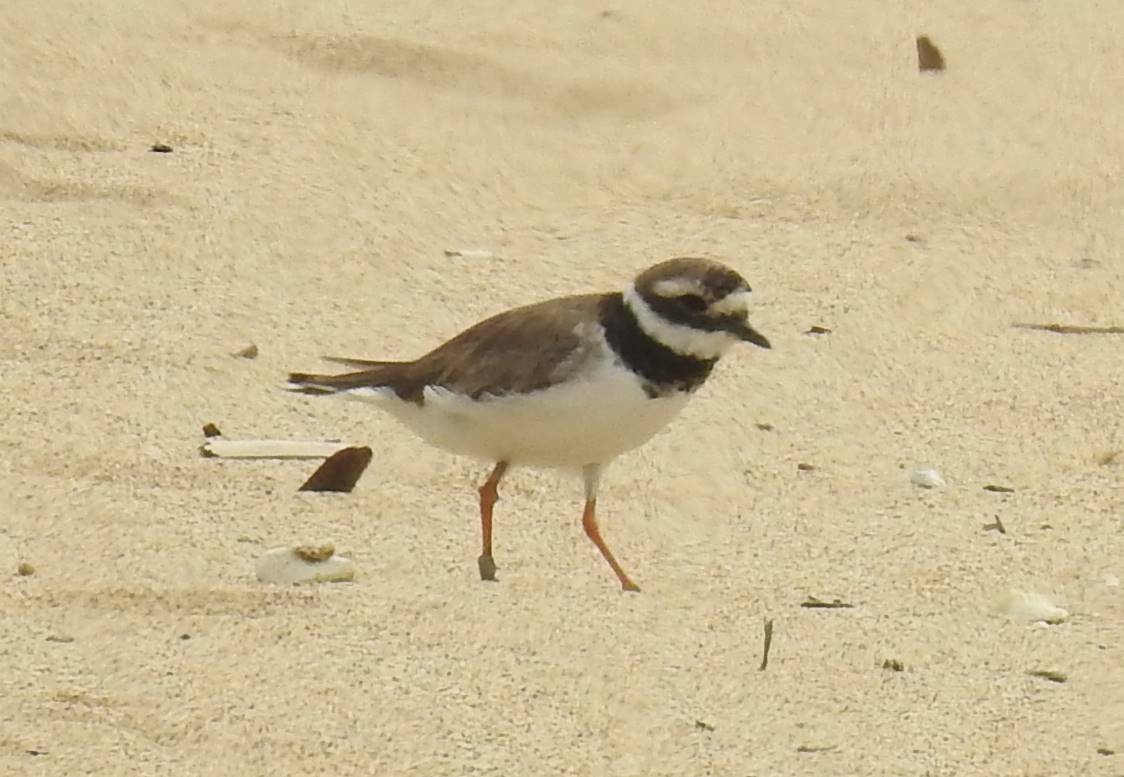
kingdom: Animalia
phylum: Chordata
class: Aves
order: Charadriiformes
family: Charadriidae
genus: Charadrius
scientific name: Charadrius hiaticula
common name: Common ringed plover
